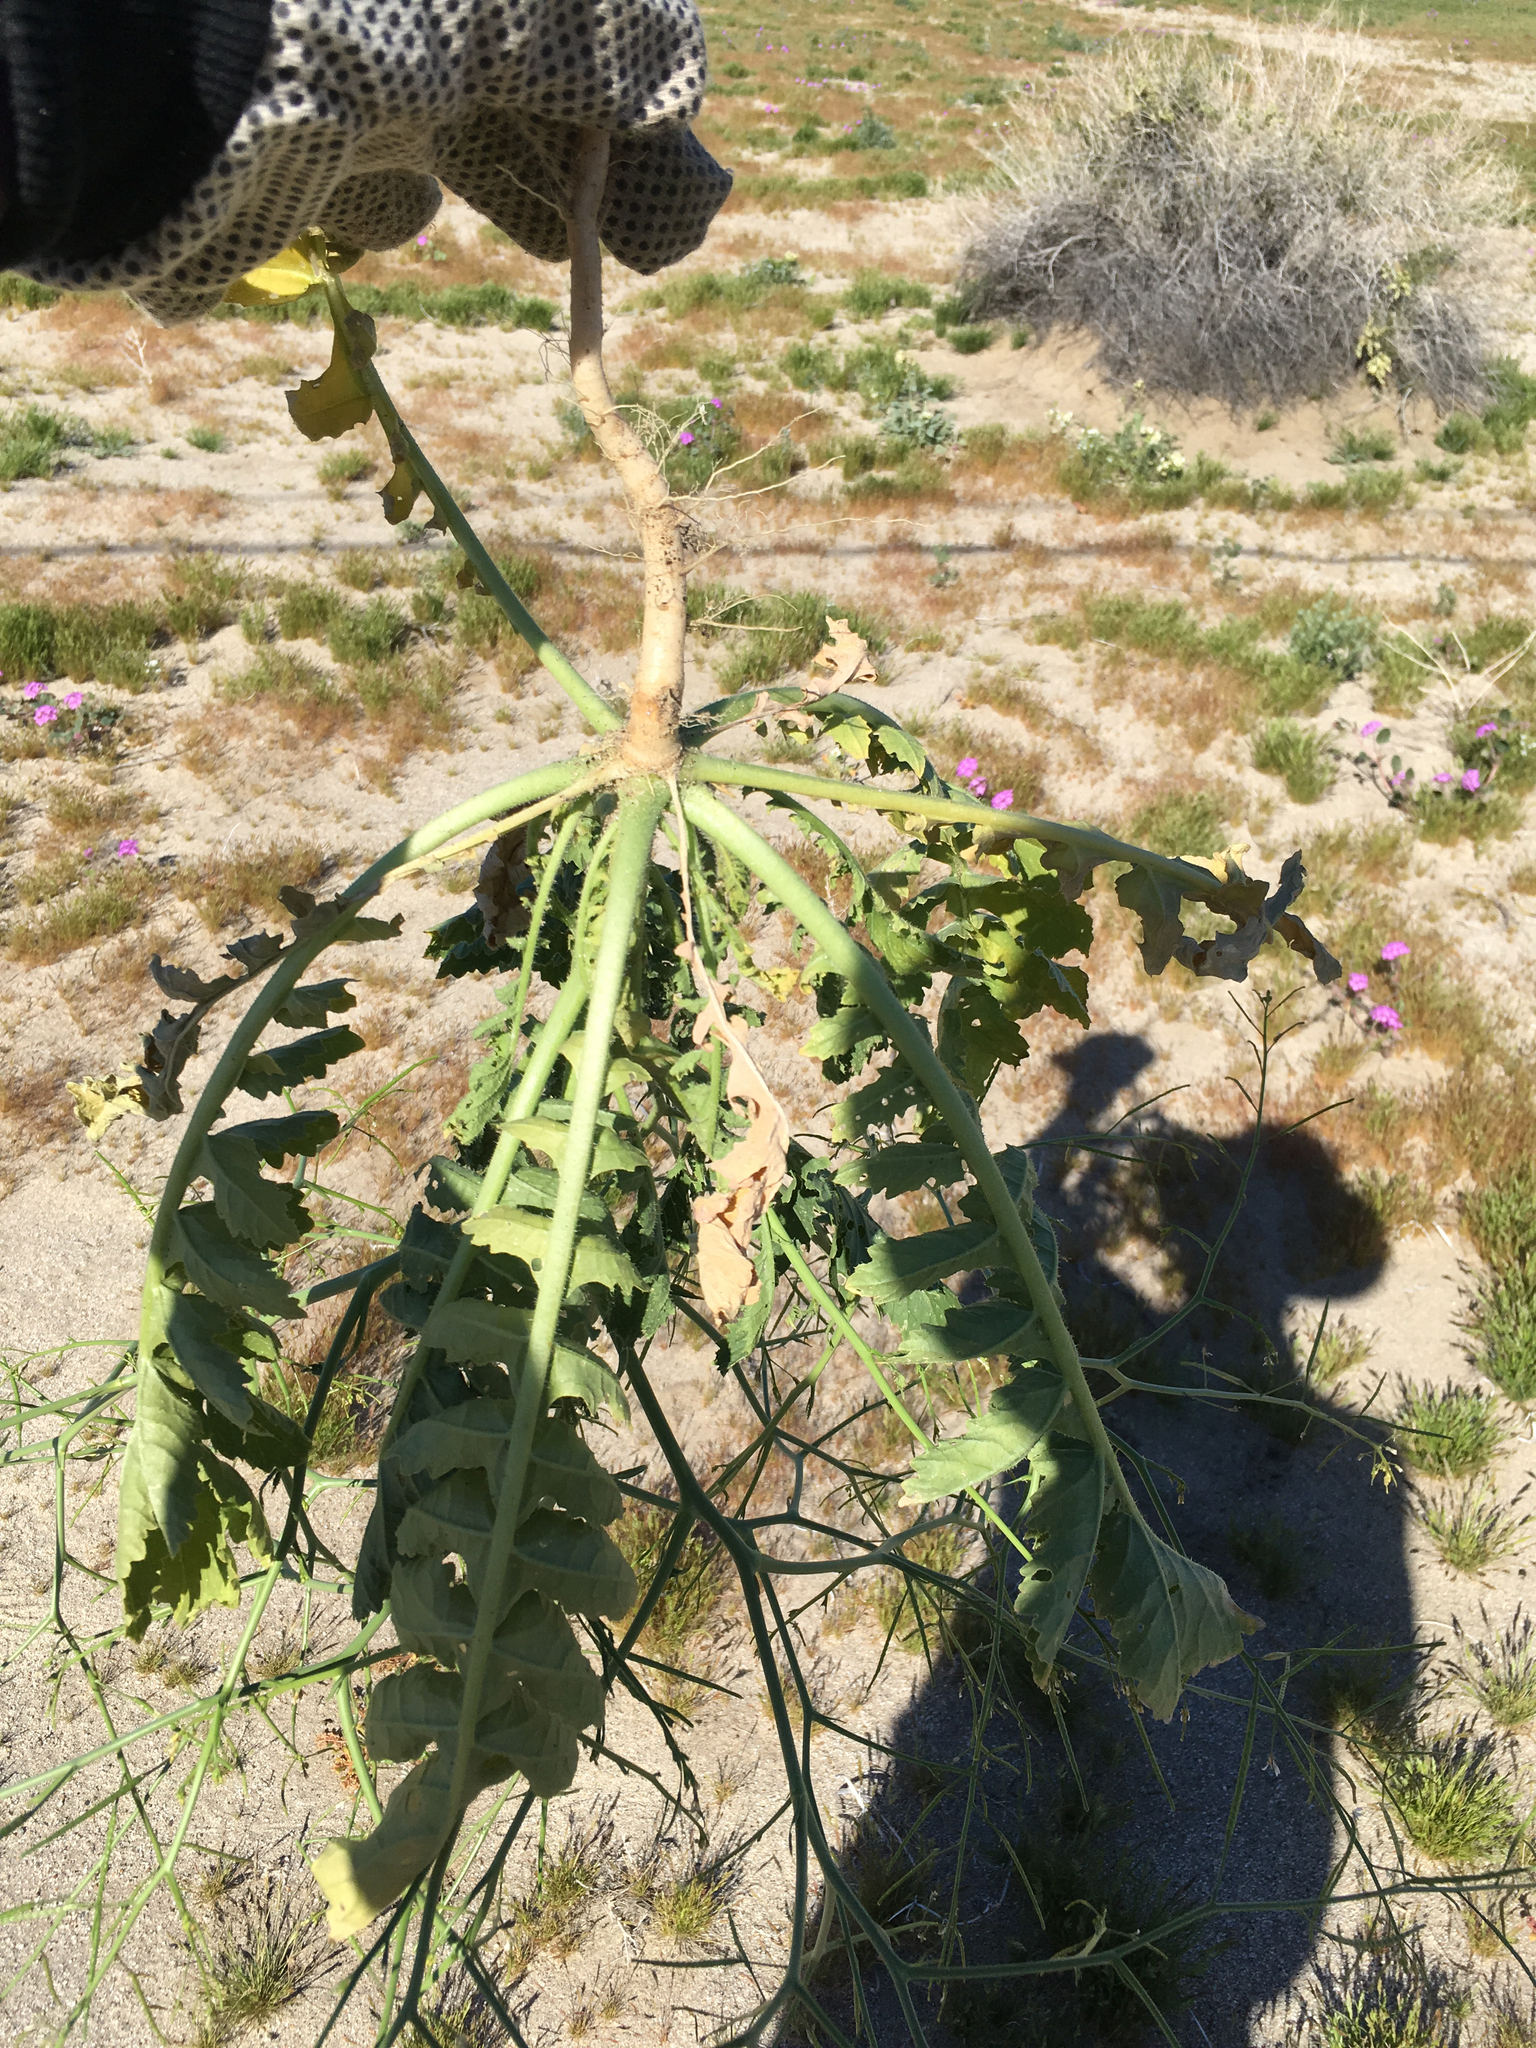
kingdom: Plantae
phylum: Tracheophyta
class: Magnoliopsida
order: Brassicales
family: Brassicaceae
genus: Brassica
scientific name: Brassica tournefortii
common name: Pale cabbage
